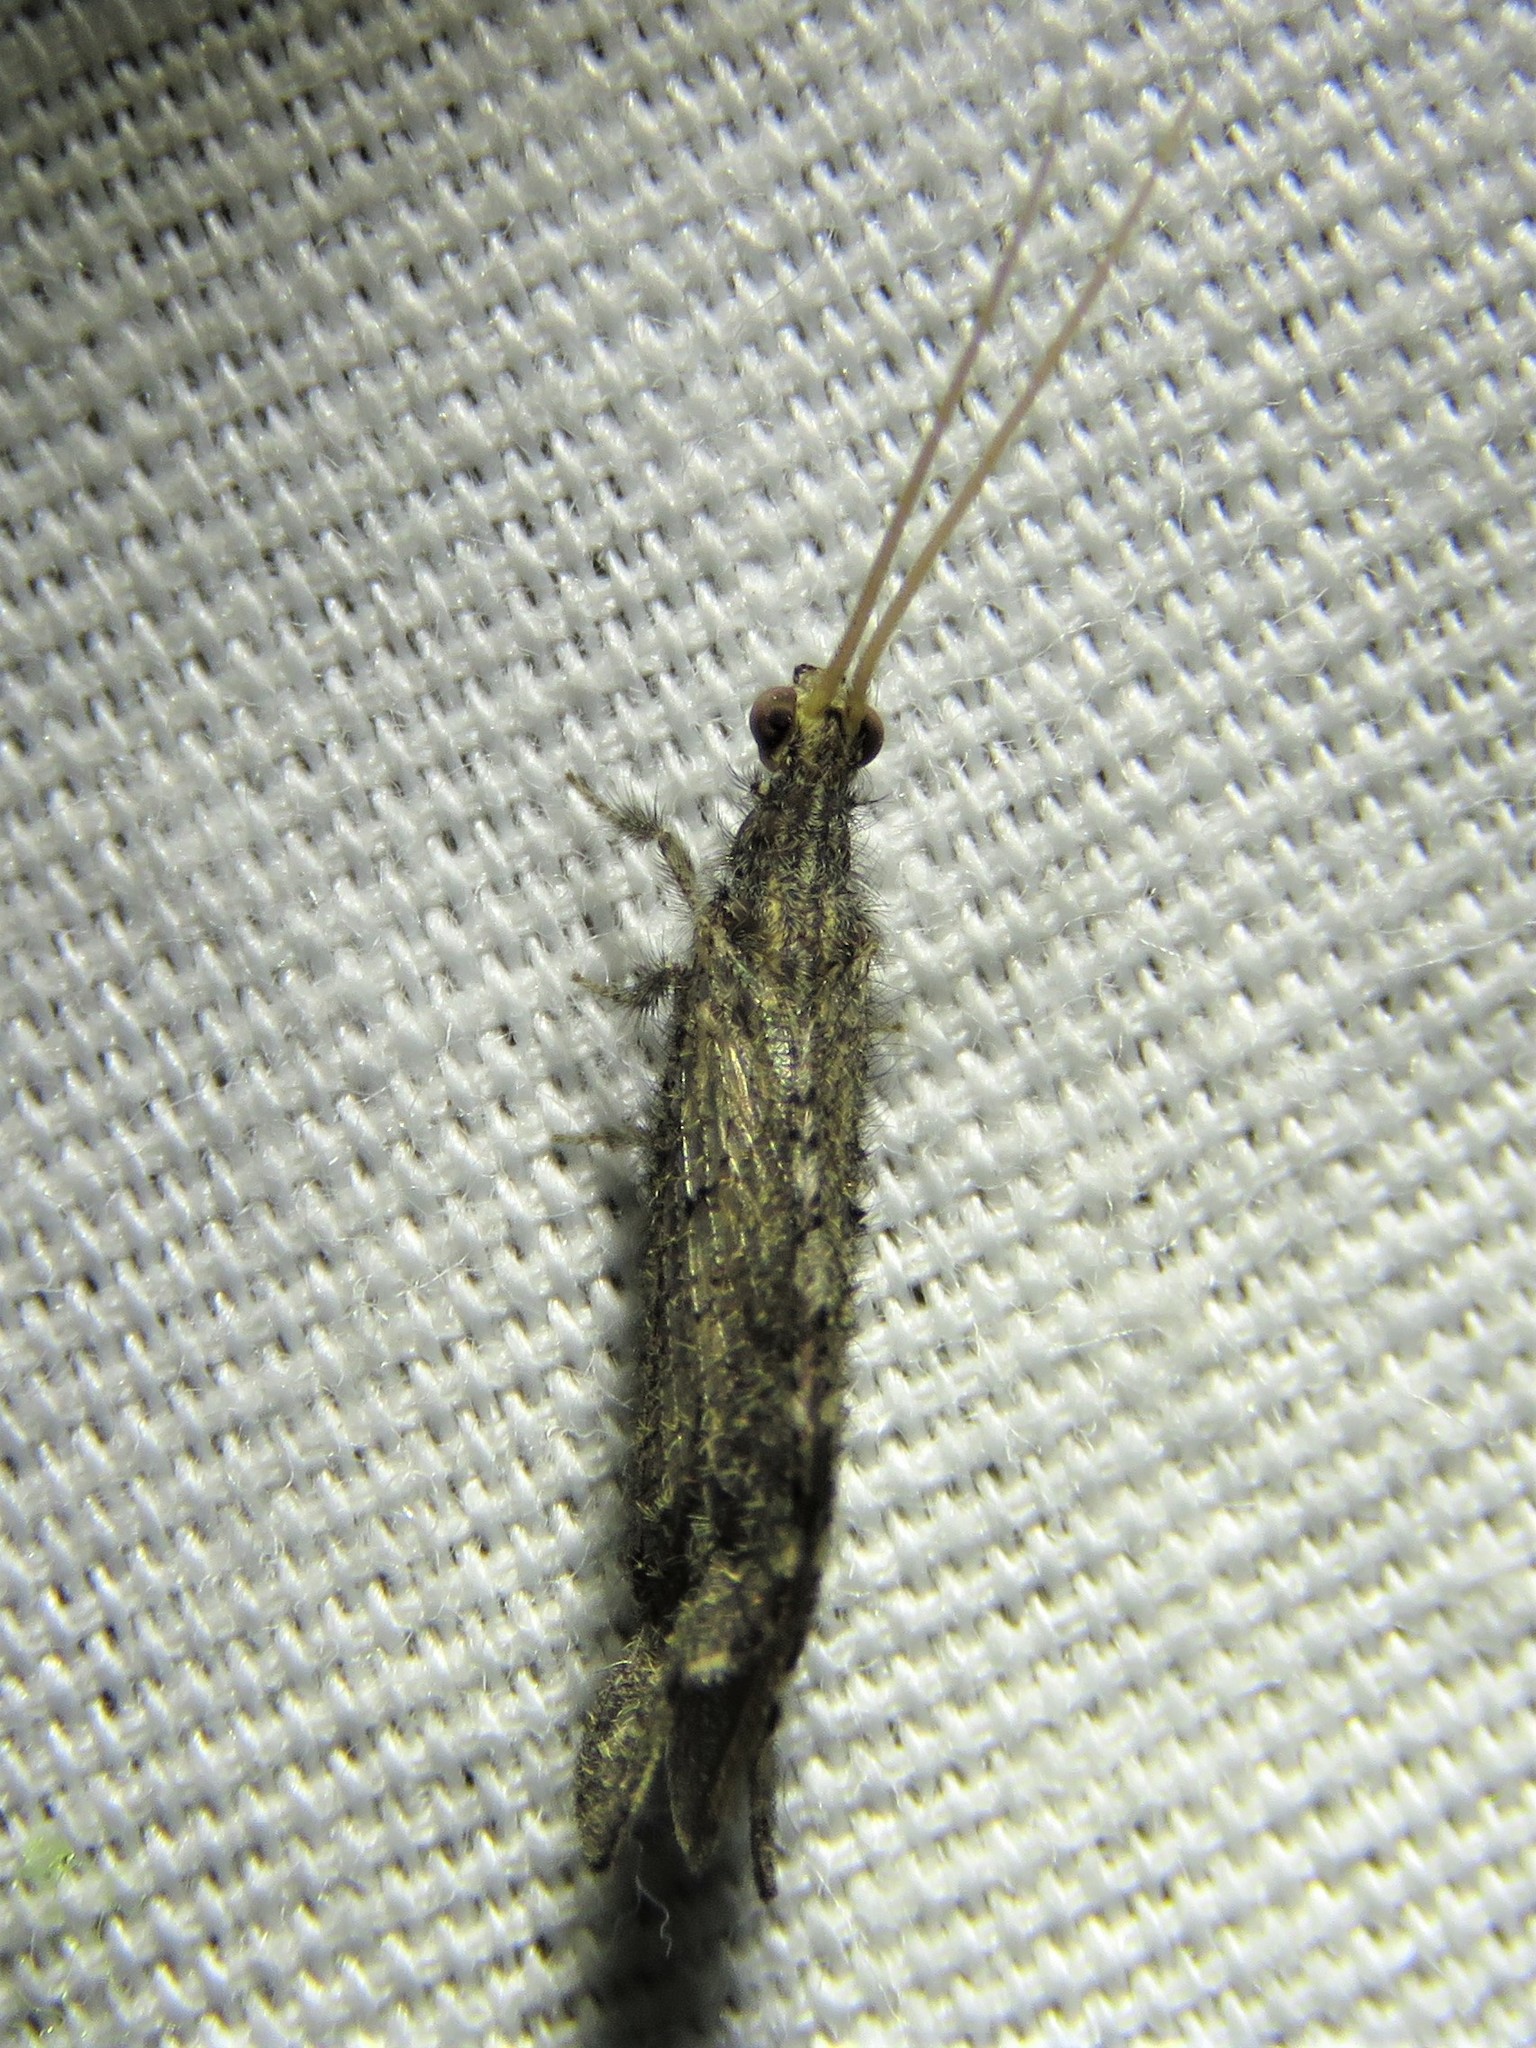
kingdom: Animalia
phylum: Arthropoda
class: Insecta
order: Neuroptera
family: Berothidae
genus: Lomamyia
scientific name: Lomamyia squamosa
